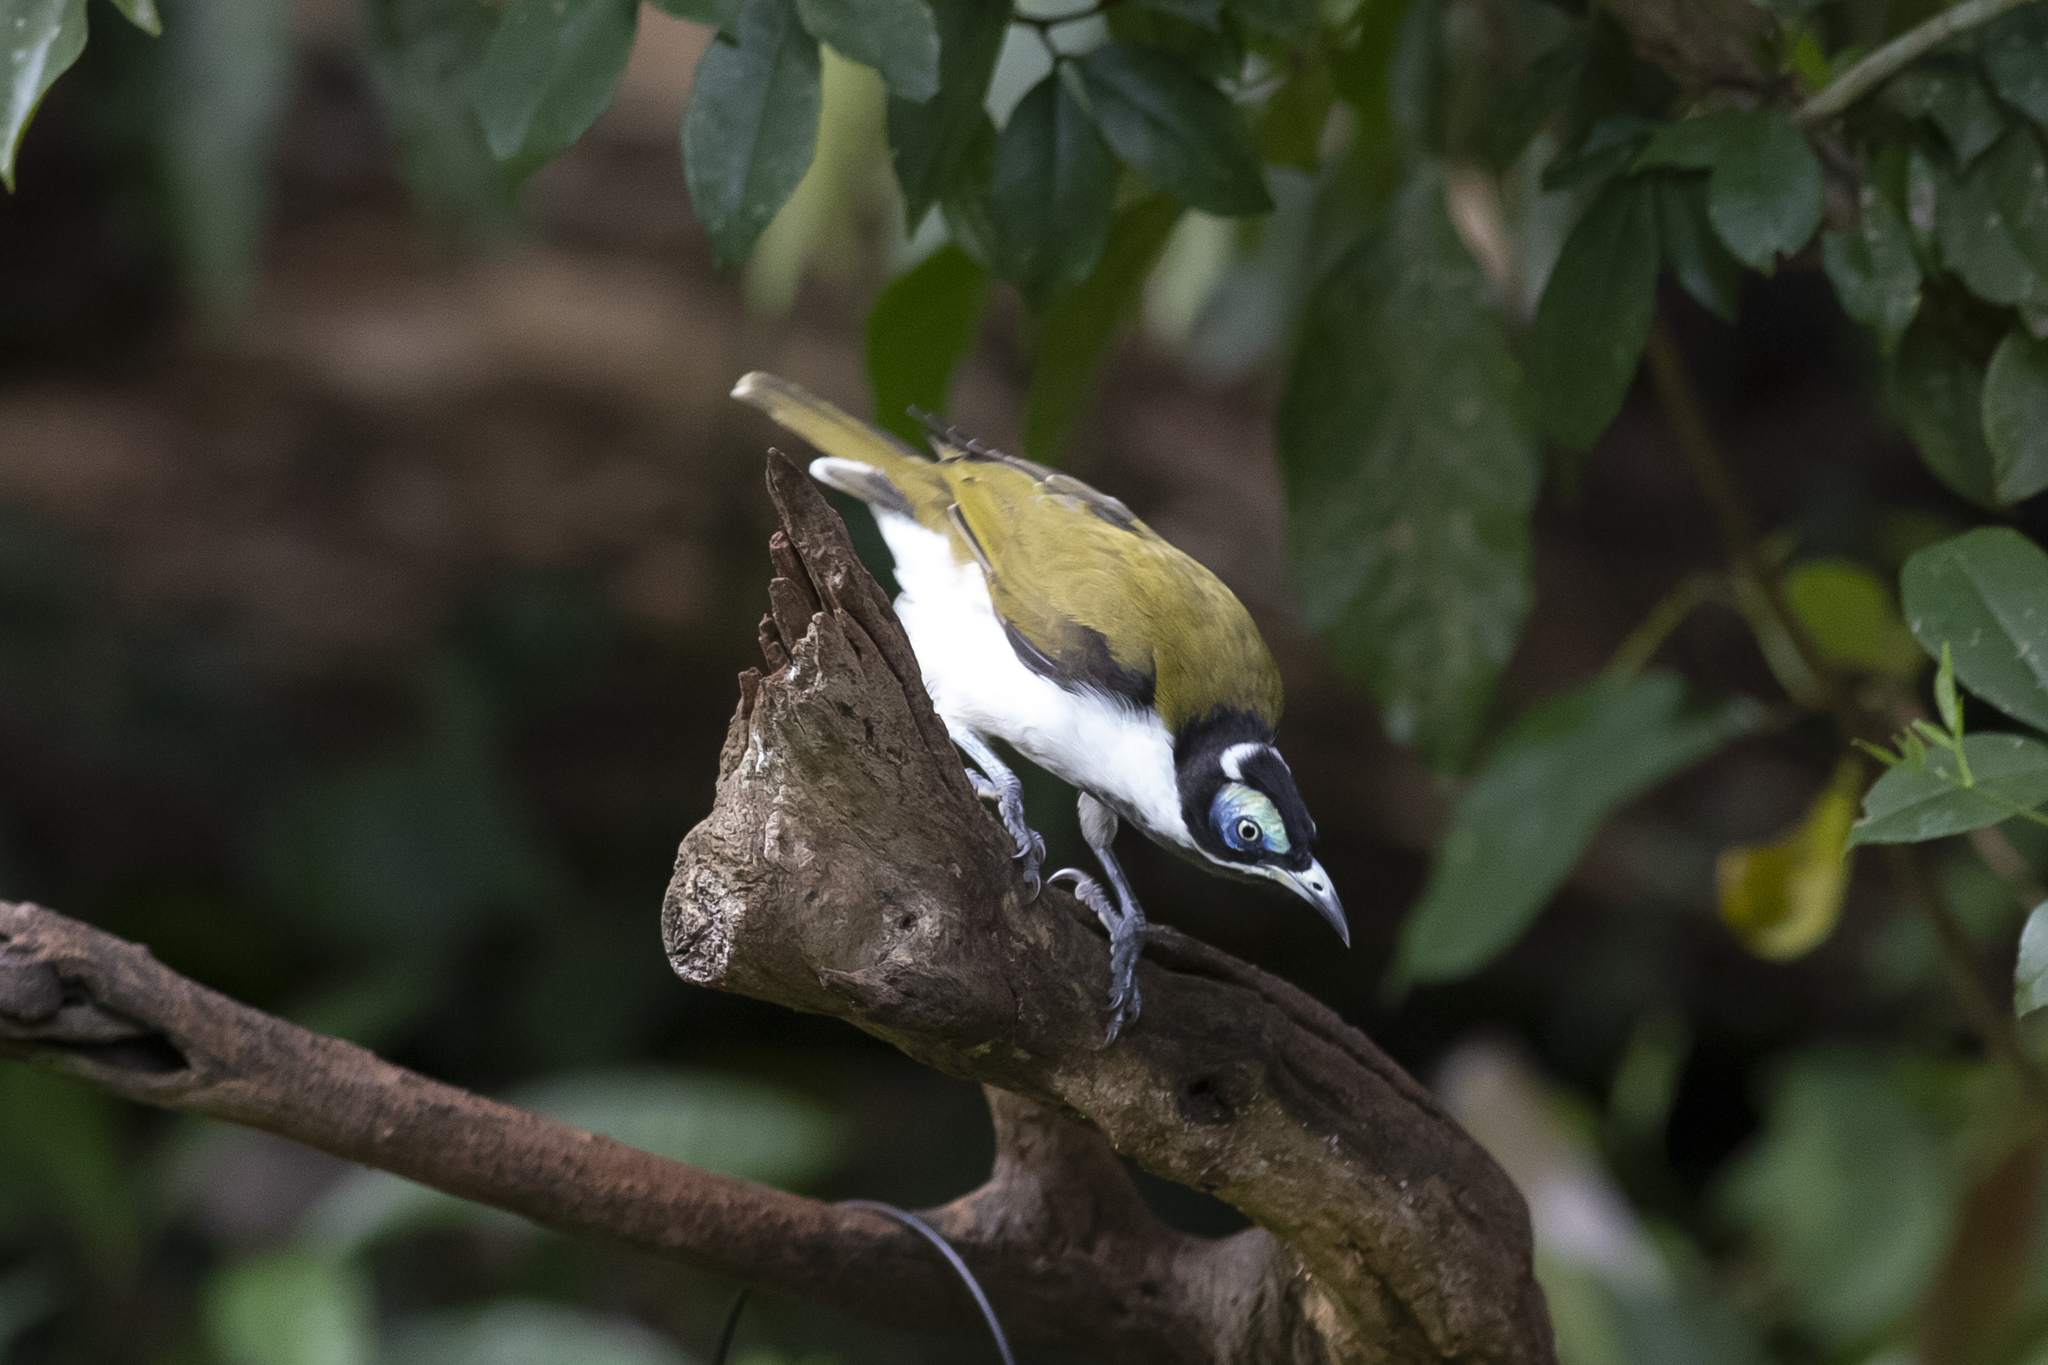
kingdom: Animalia
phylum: Chordata
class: Aves
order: Passeriformes
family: Meliphagidae
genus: Entomyzon
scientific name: Entomyzon cyanotis
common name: Blue-faced honeyeater
